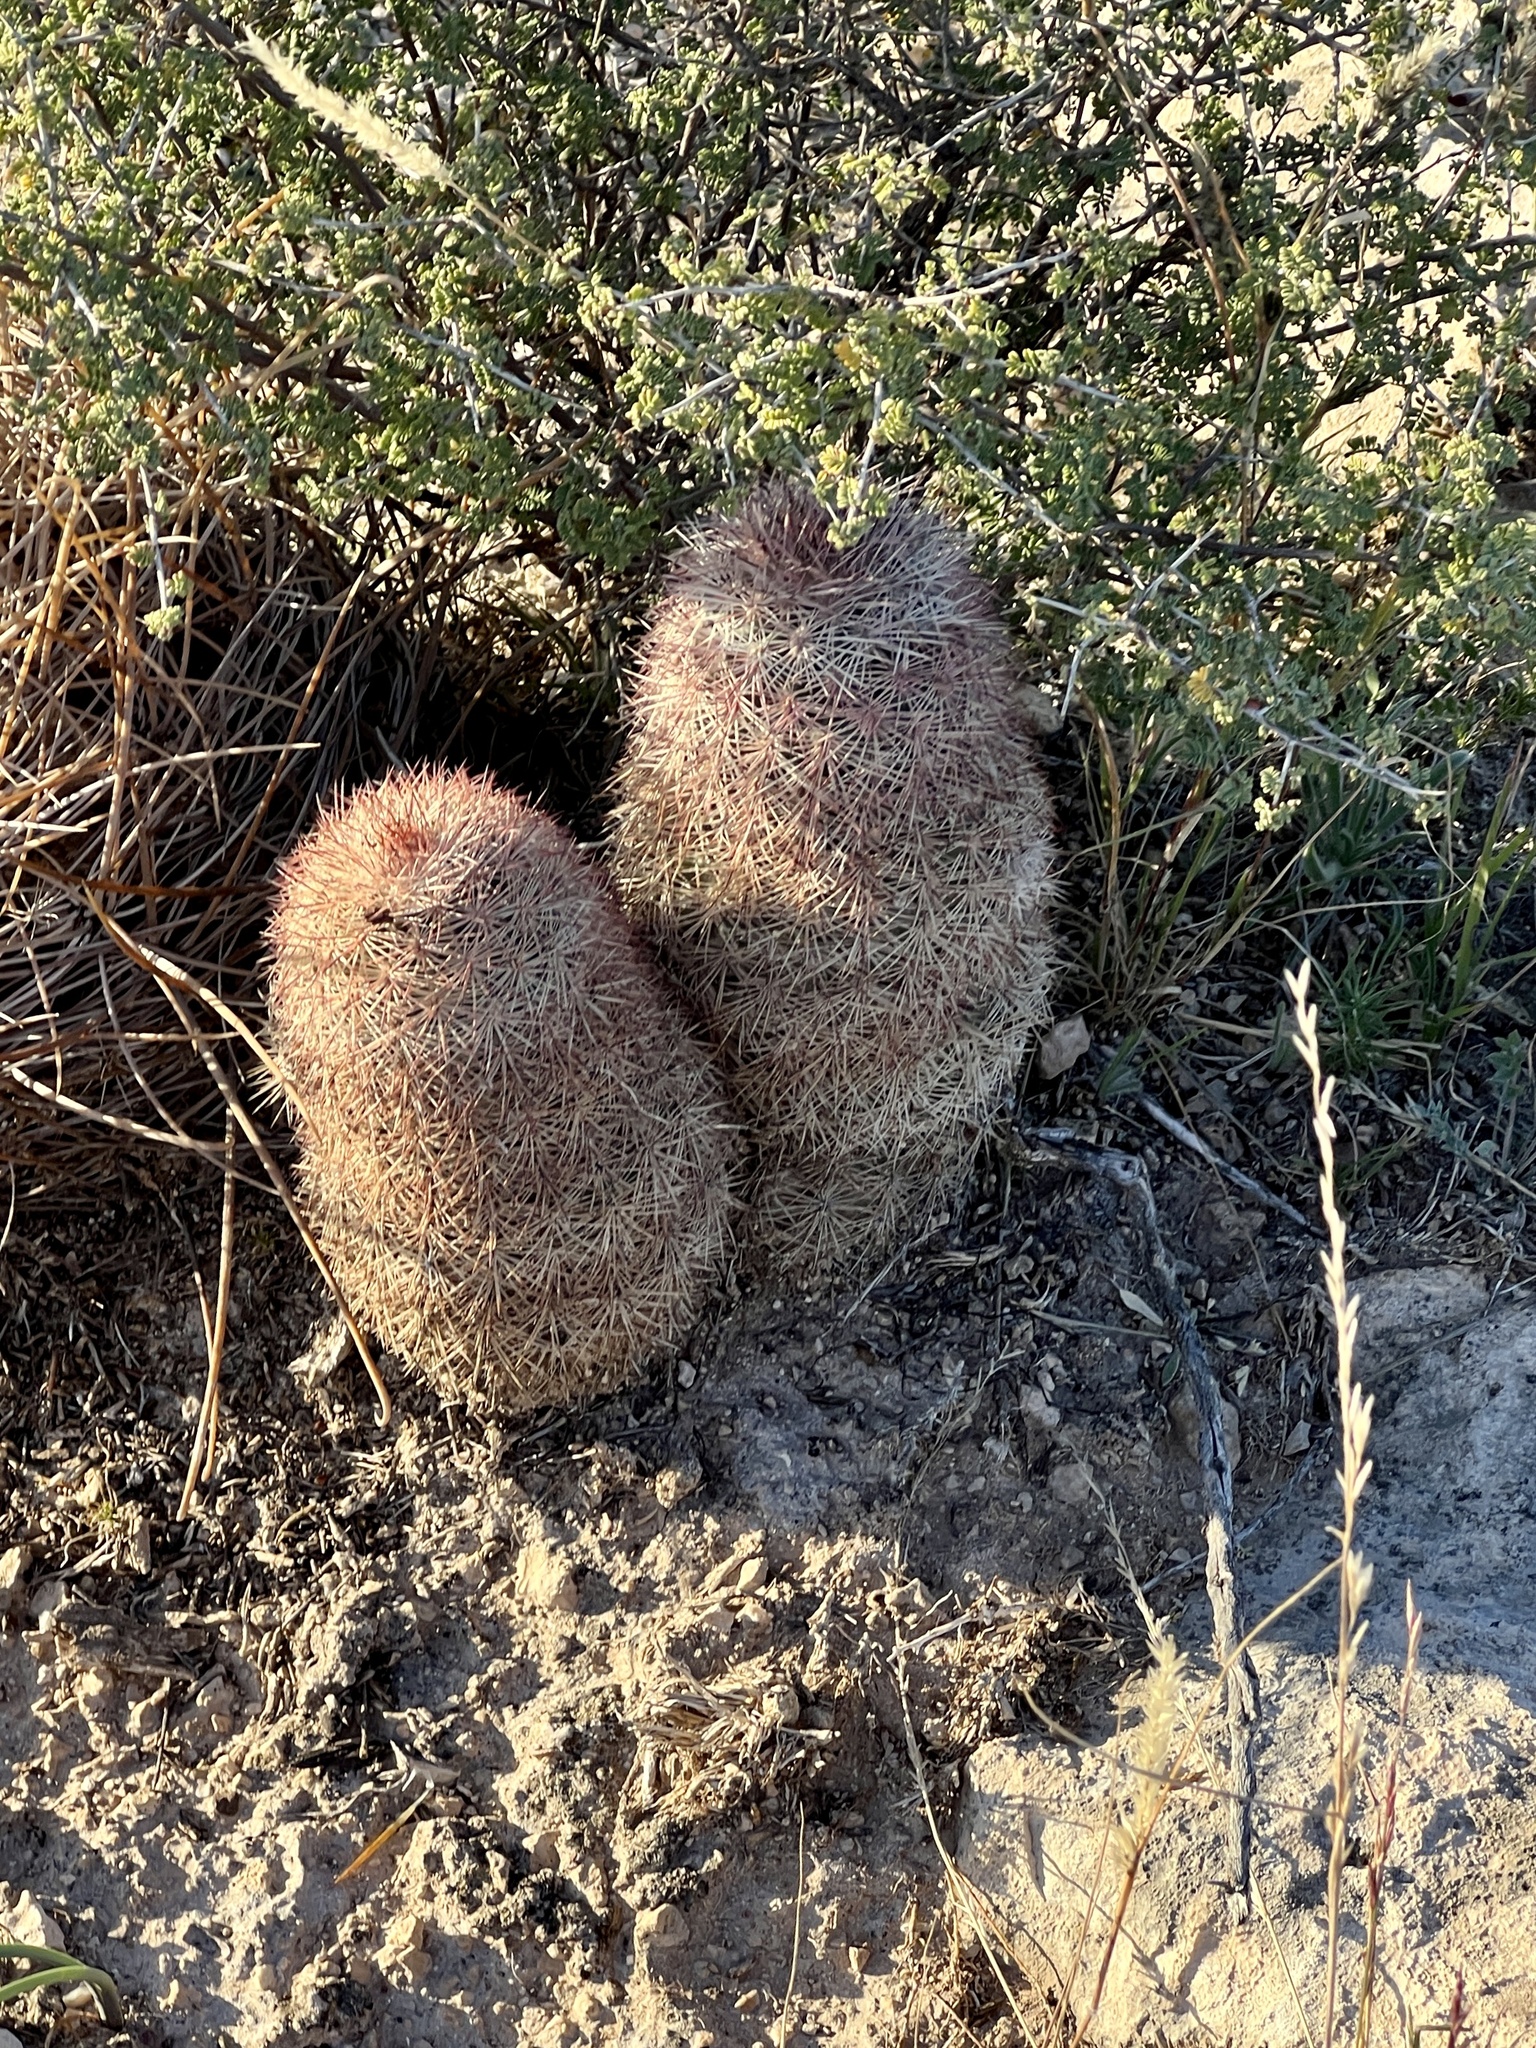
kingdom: Plantae
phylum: Tracheophyta
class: Magnoliopsida
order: Caryophyllales
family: Cactaceae
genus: Echinocereus
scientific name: Echinocereus dasyacanthus
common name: Spiny hedgehog cactus
